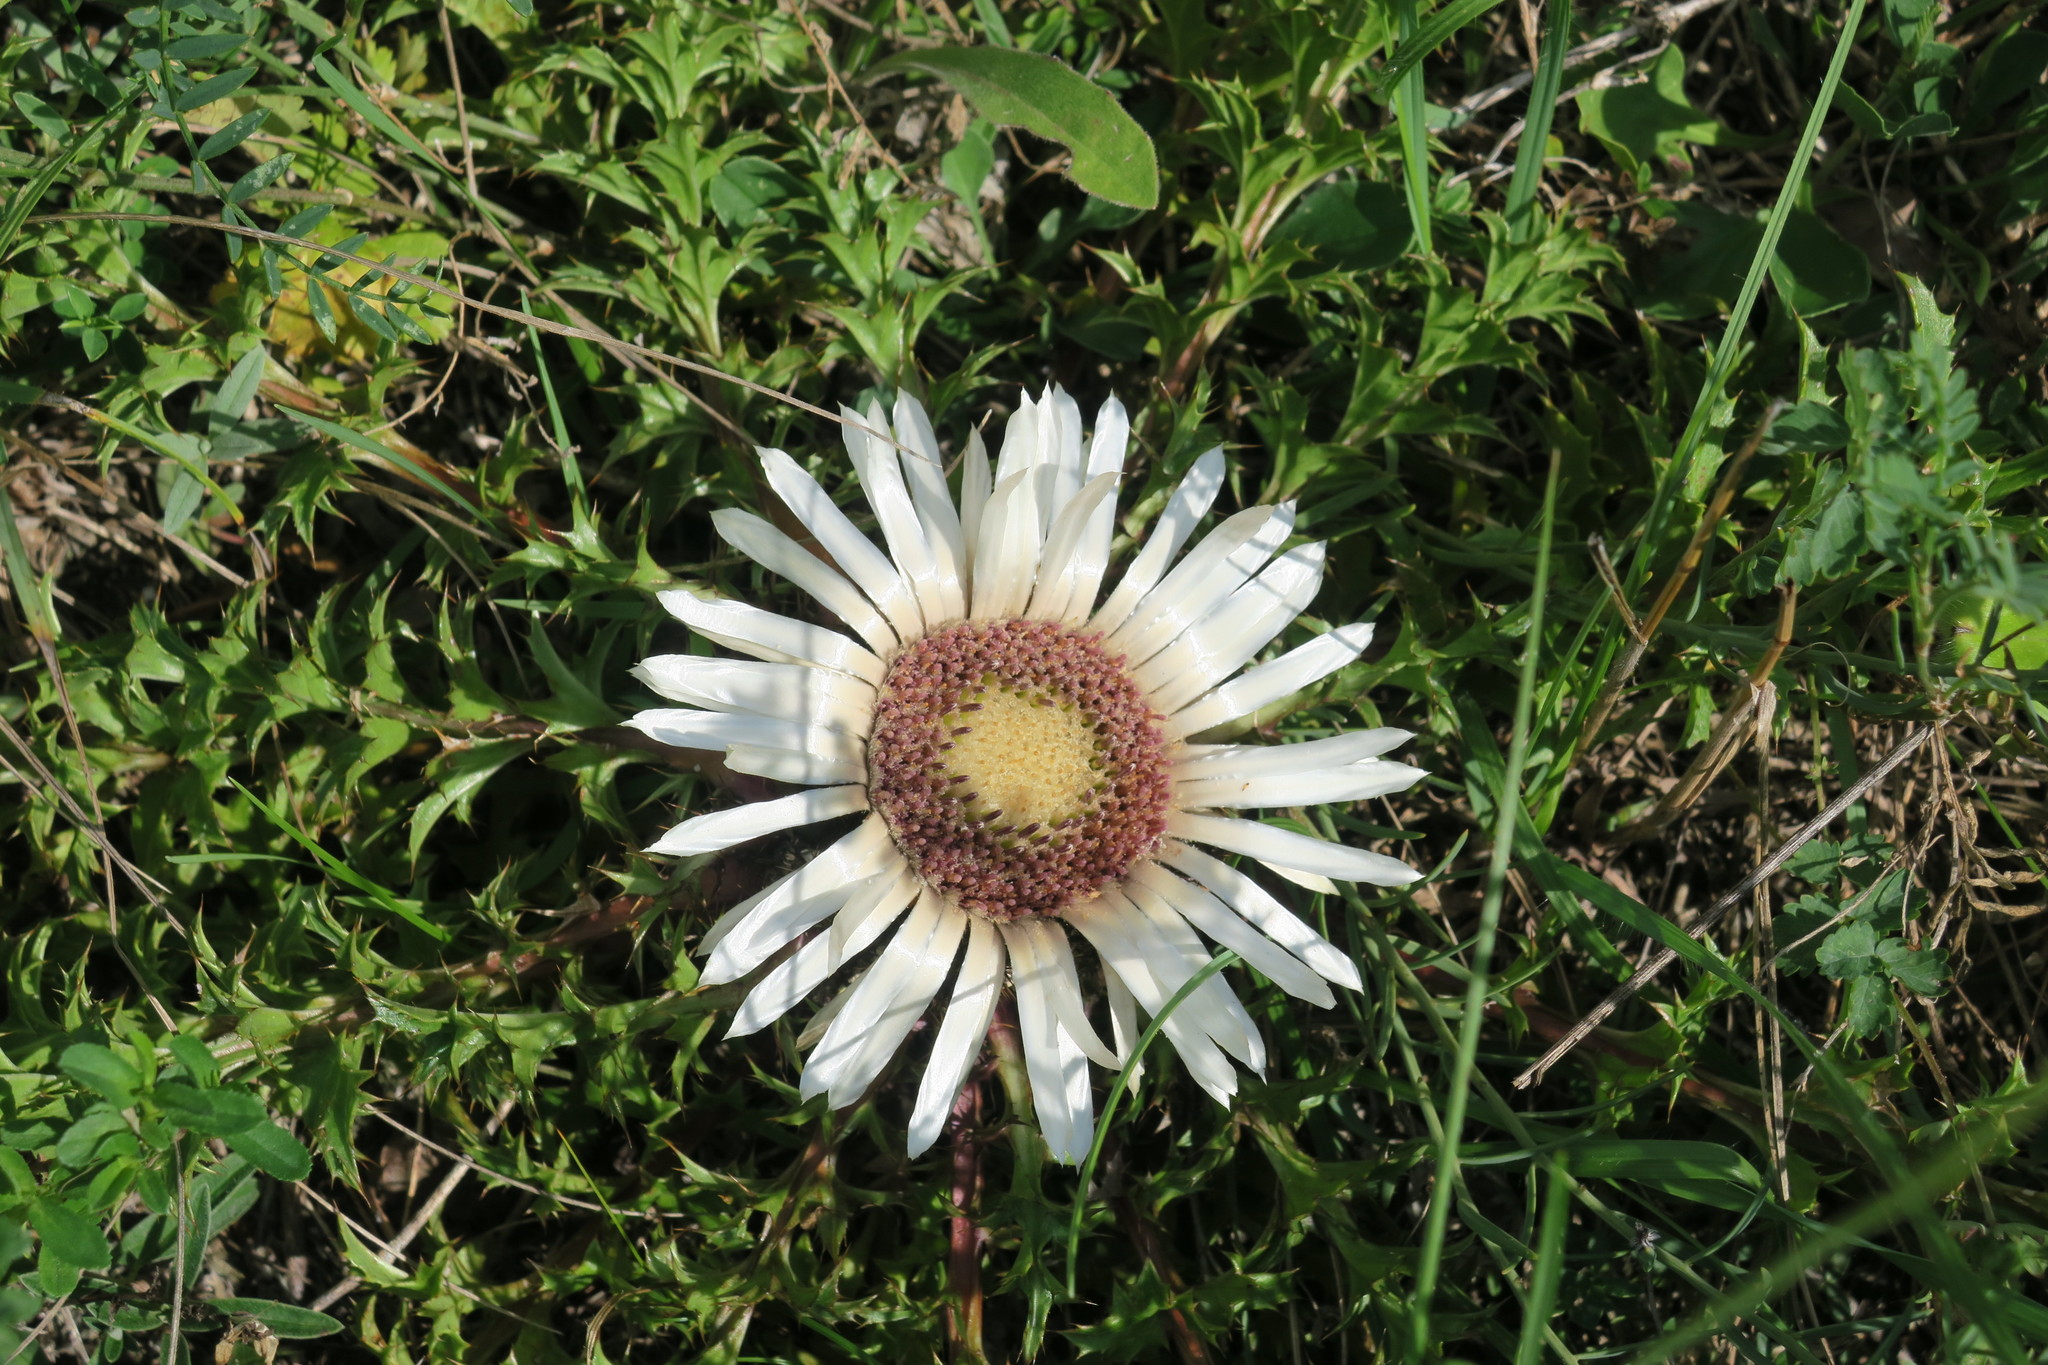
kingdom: Plantae
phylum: Tracheophyta
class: Magnoliopsida
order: Asterales
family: Asteraceae
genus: Carlina
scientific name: Carlina acaulis
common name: Stemless carline thistle
